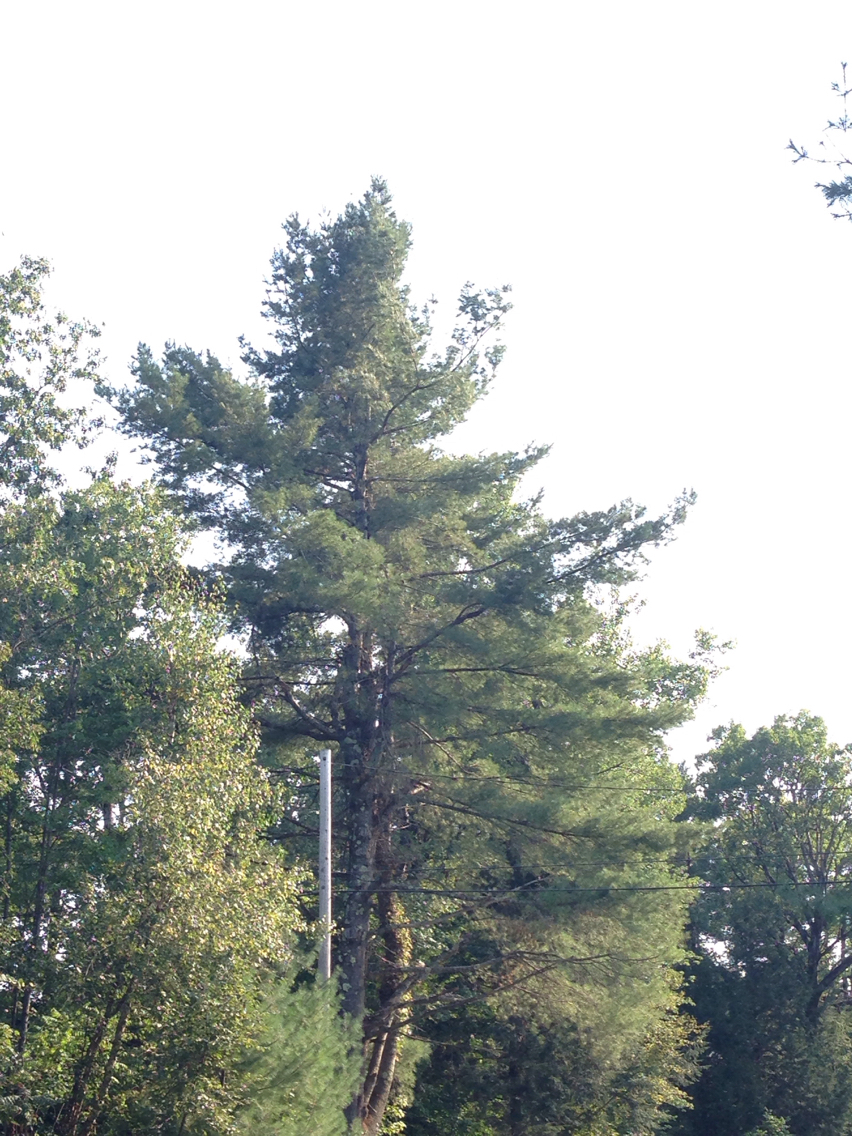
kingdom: Plantae
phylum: Tracheophyta
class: Pinopsida
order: Pinales
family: Pinaceae
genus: Pinus
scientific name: Pinus strobus
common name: Weymouth pine
